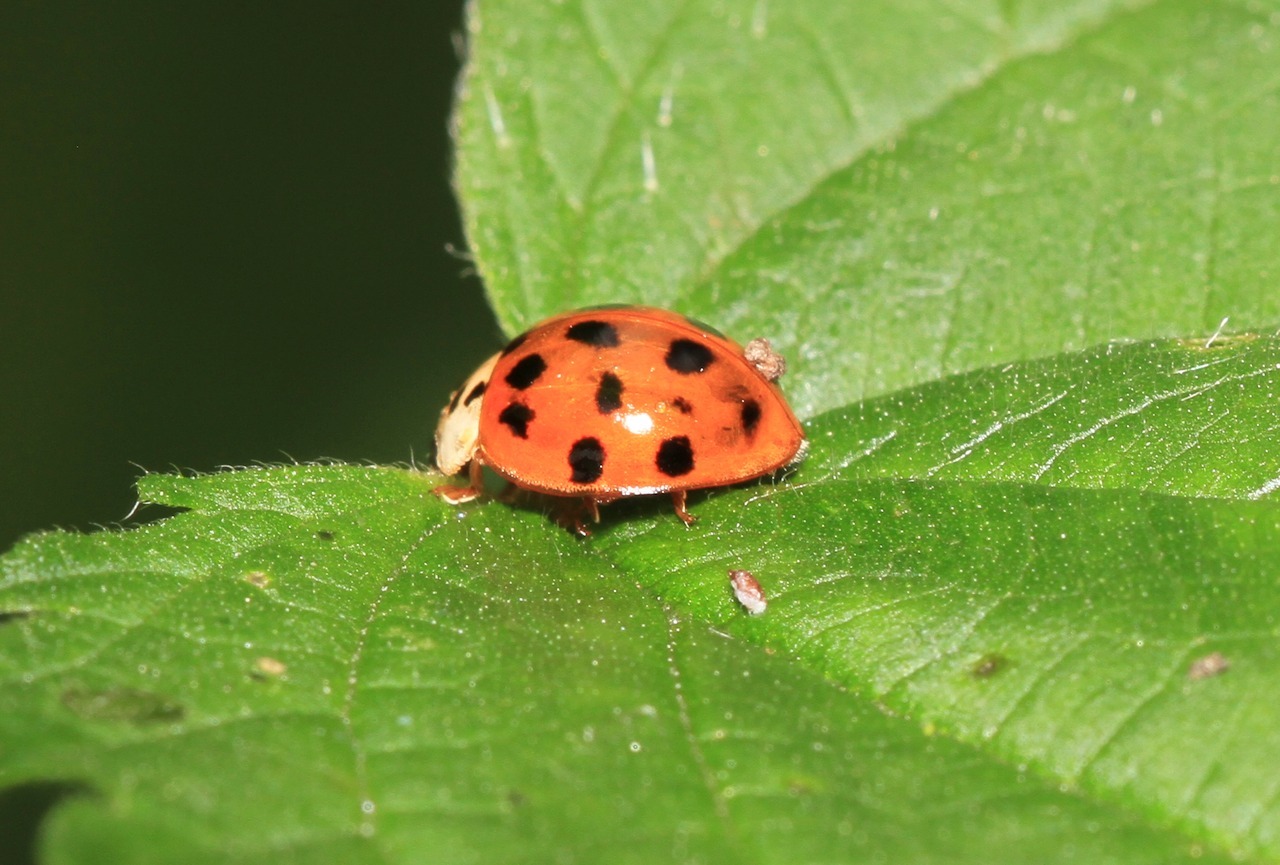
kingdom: Animalia
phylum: Arthropoda
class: Insecta
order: Coleoptera
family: Coccinellidae
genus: Harmonia
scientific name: Harmonia axyridis
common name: Harlequin ladybird
